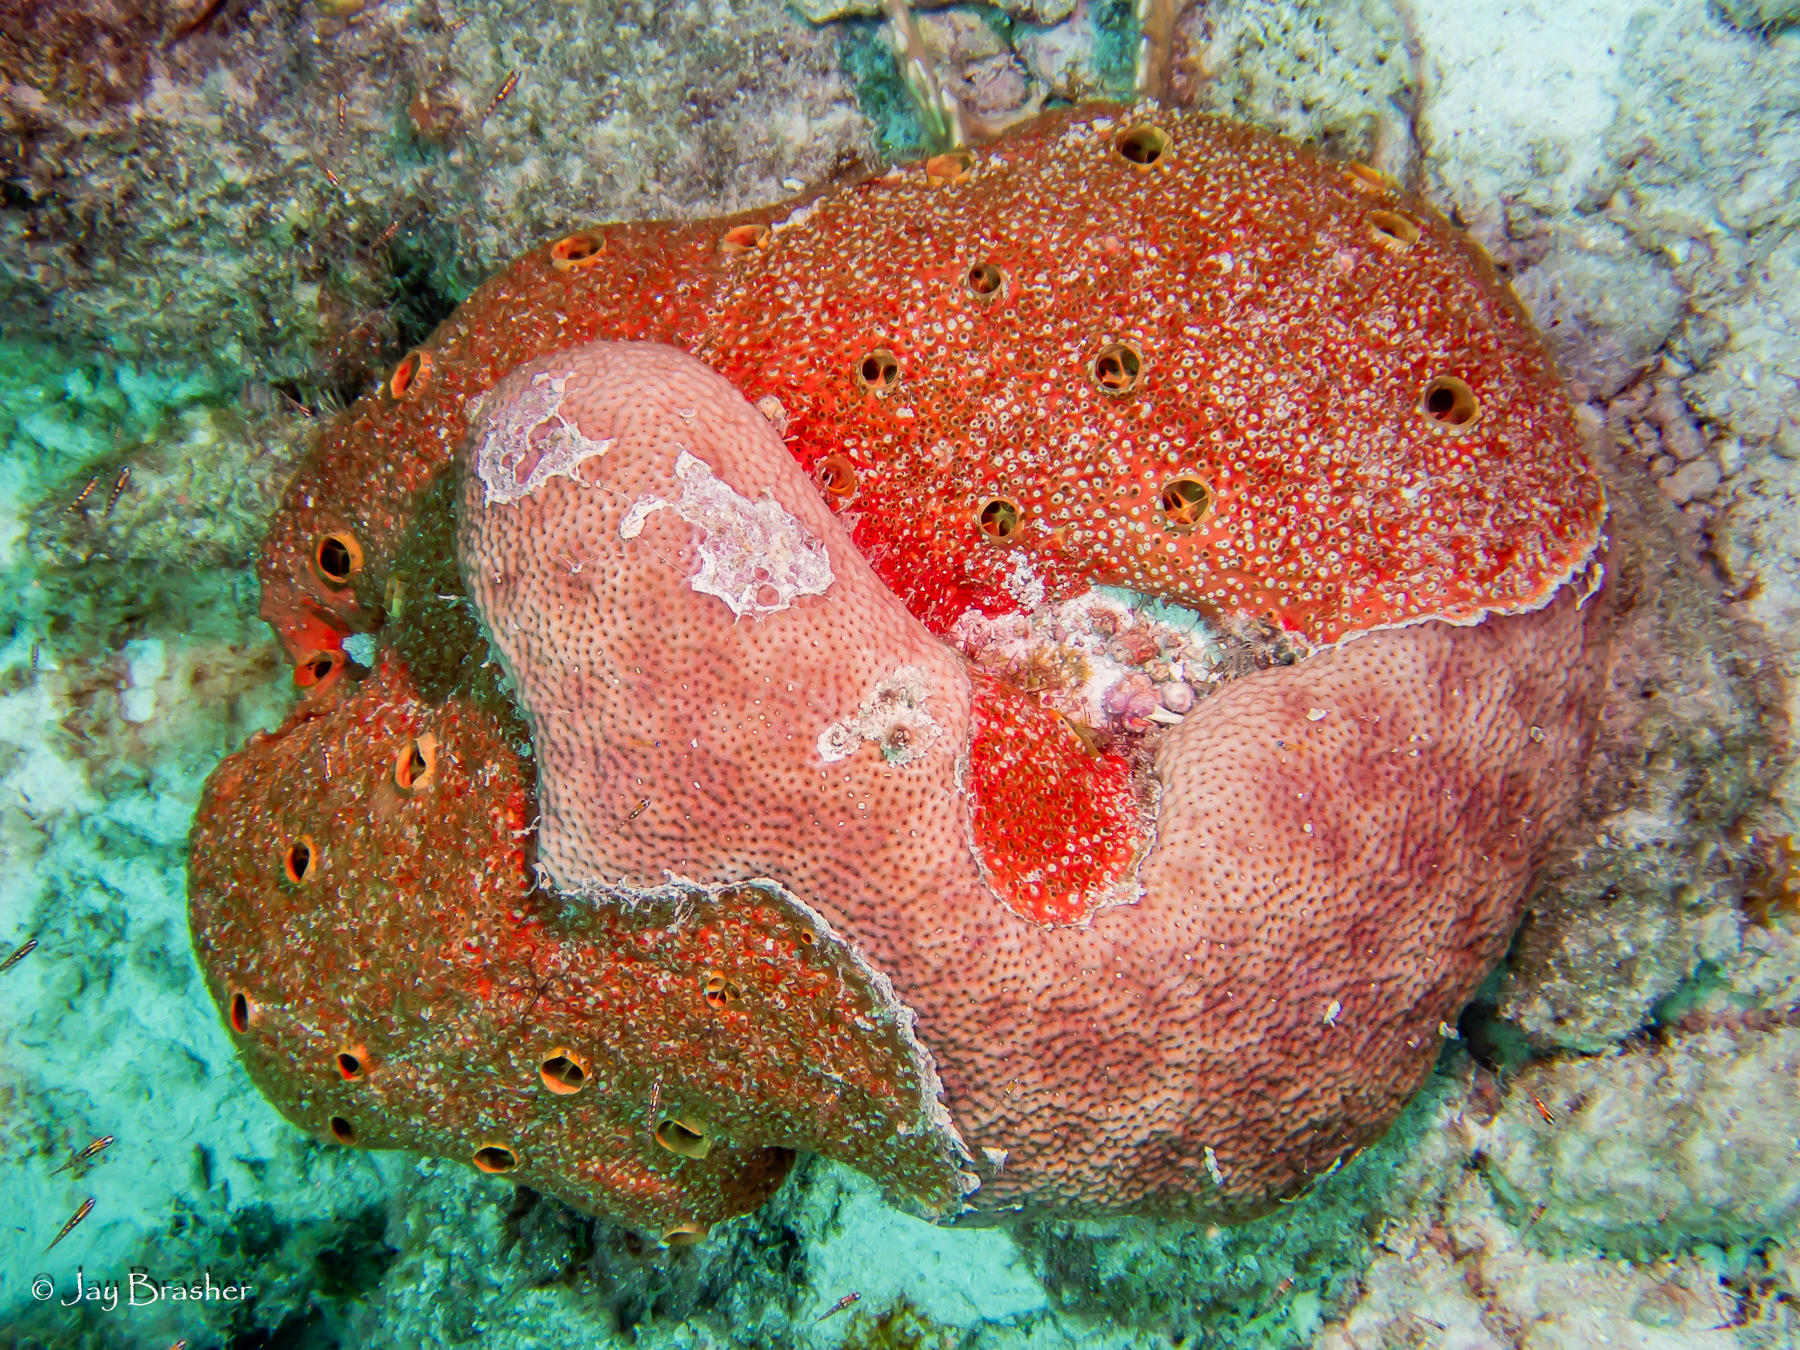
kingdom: Animalia
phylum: Cnidaria
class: Anthozoa
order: Scleractinia
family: Rhizangiidae
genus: Siderastrea
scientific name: Siderastrea siderea
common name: Massive starlet coral
